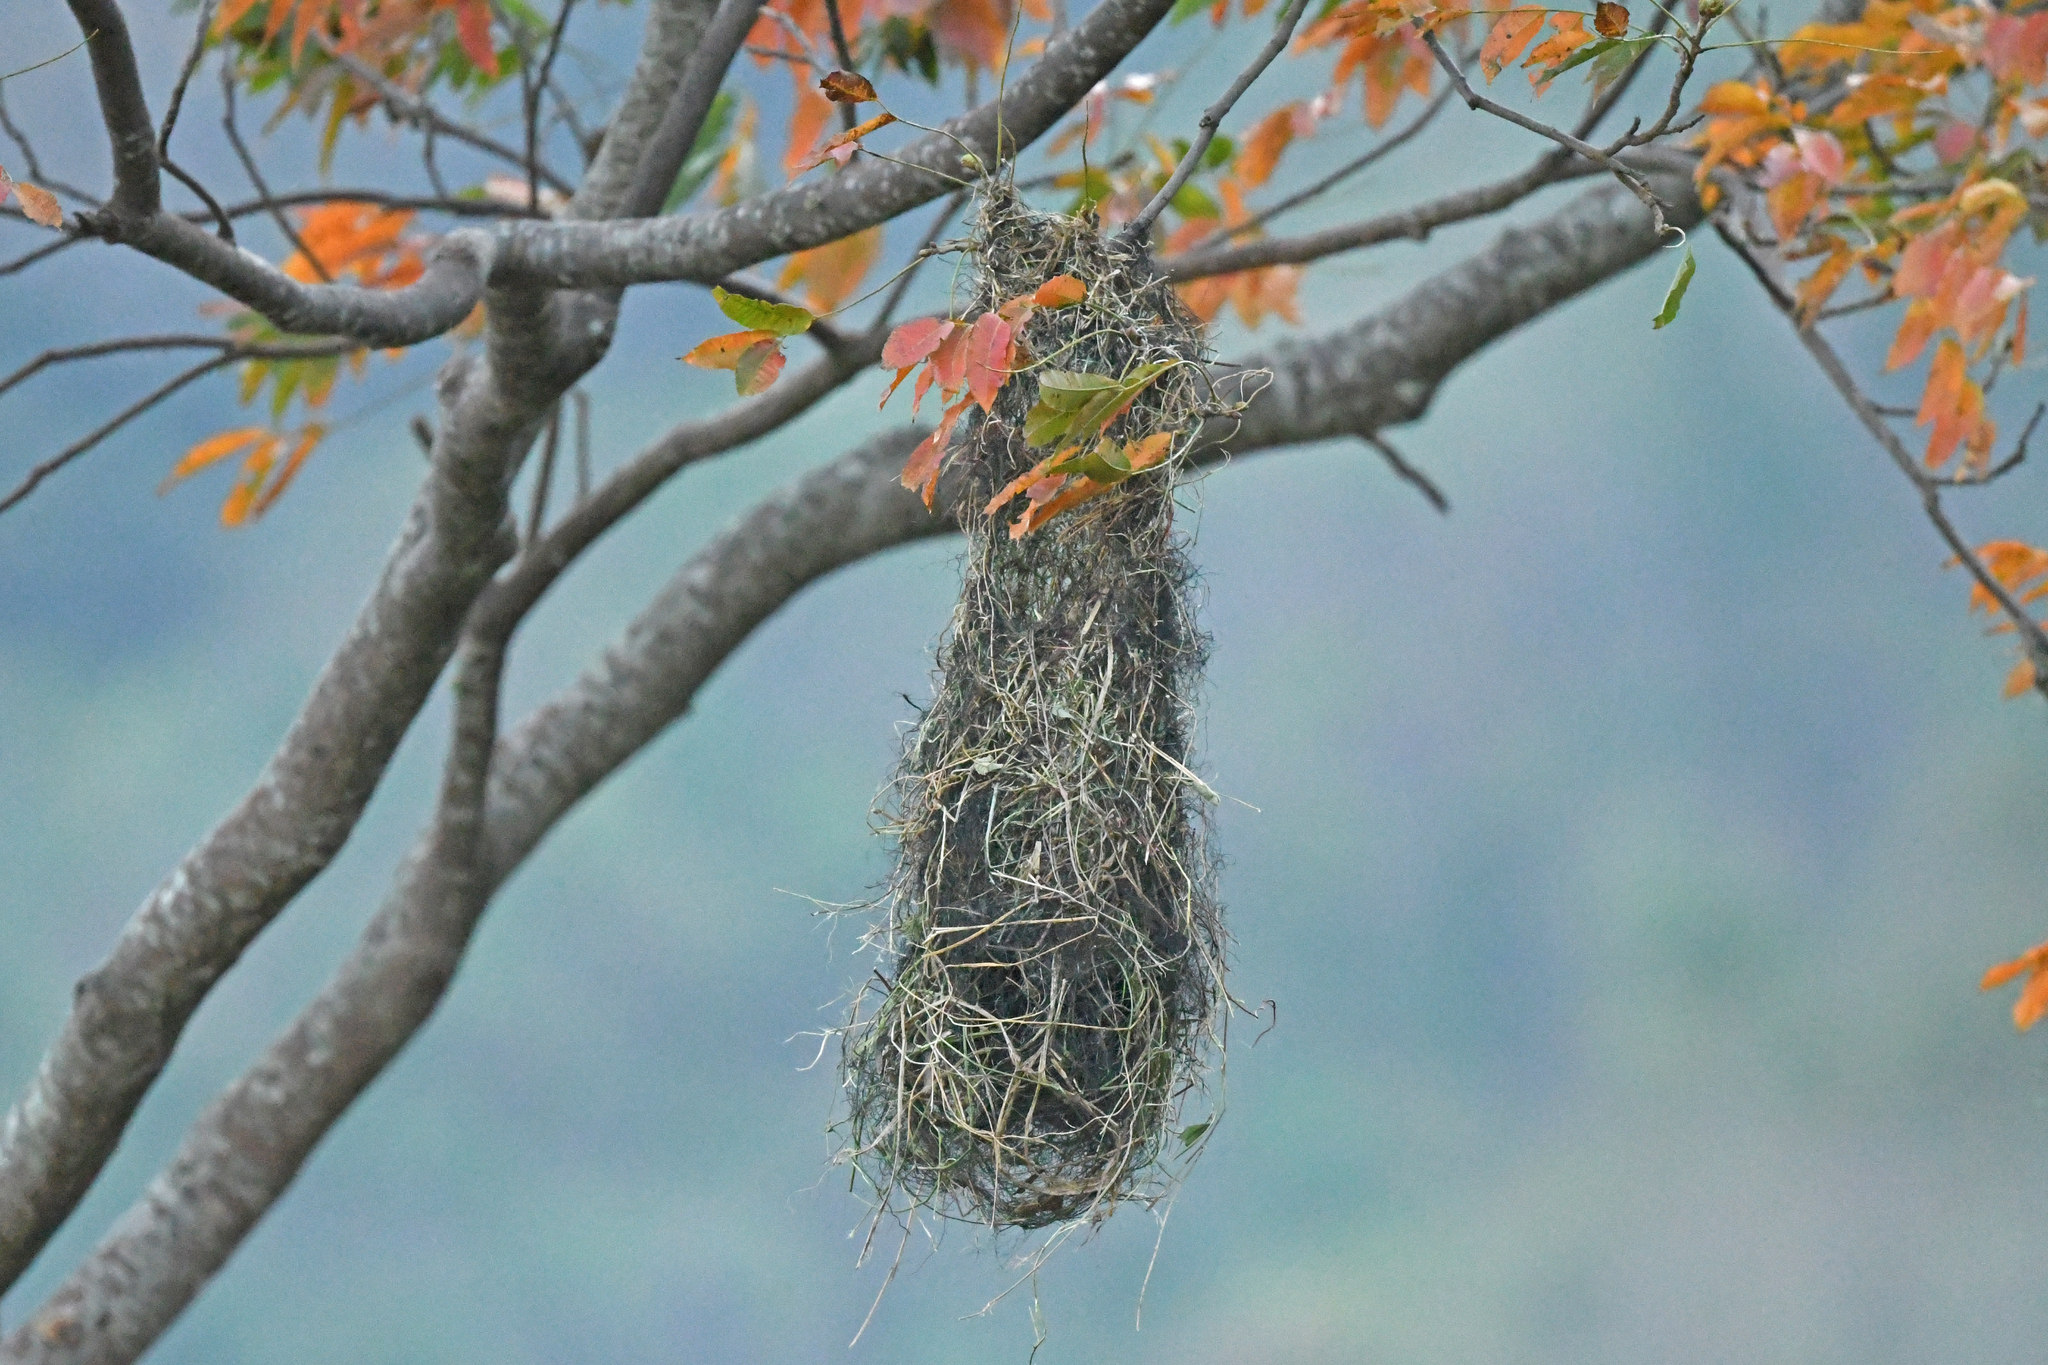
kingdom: Animalia
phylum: Chordata
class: Aves
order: Passeriformes
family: Icteridae
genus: Psarocolius
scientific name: Psarocolius decumanus
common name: Crested oropendola
